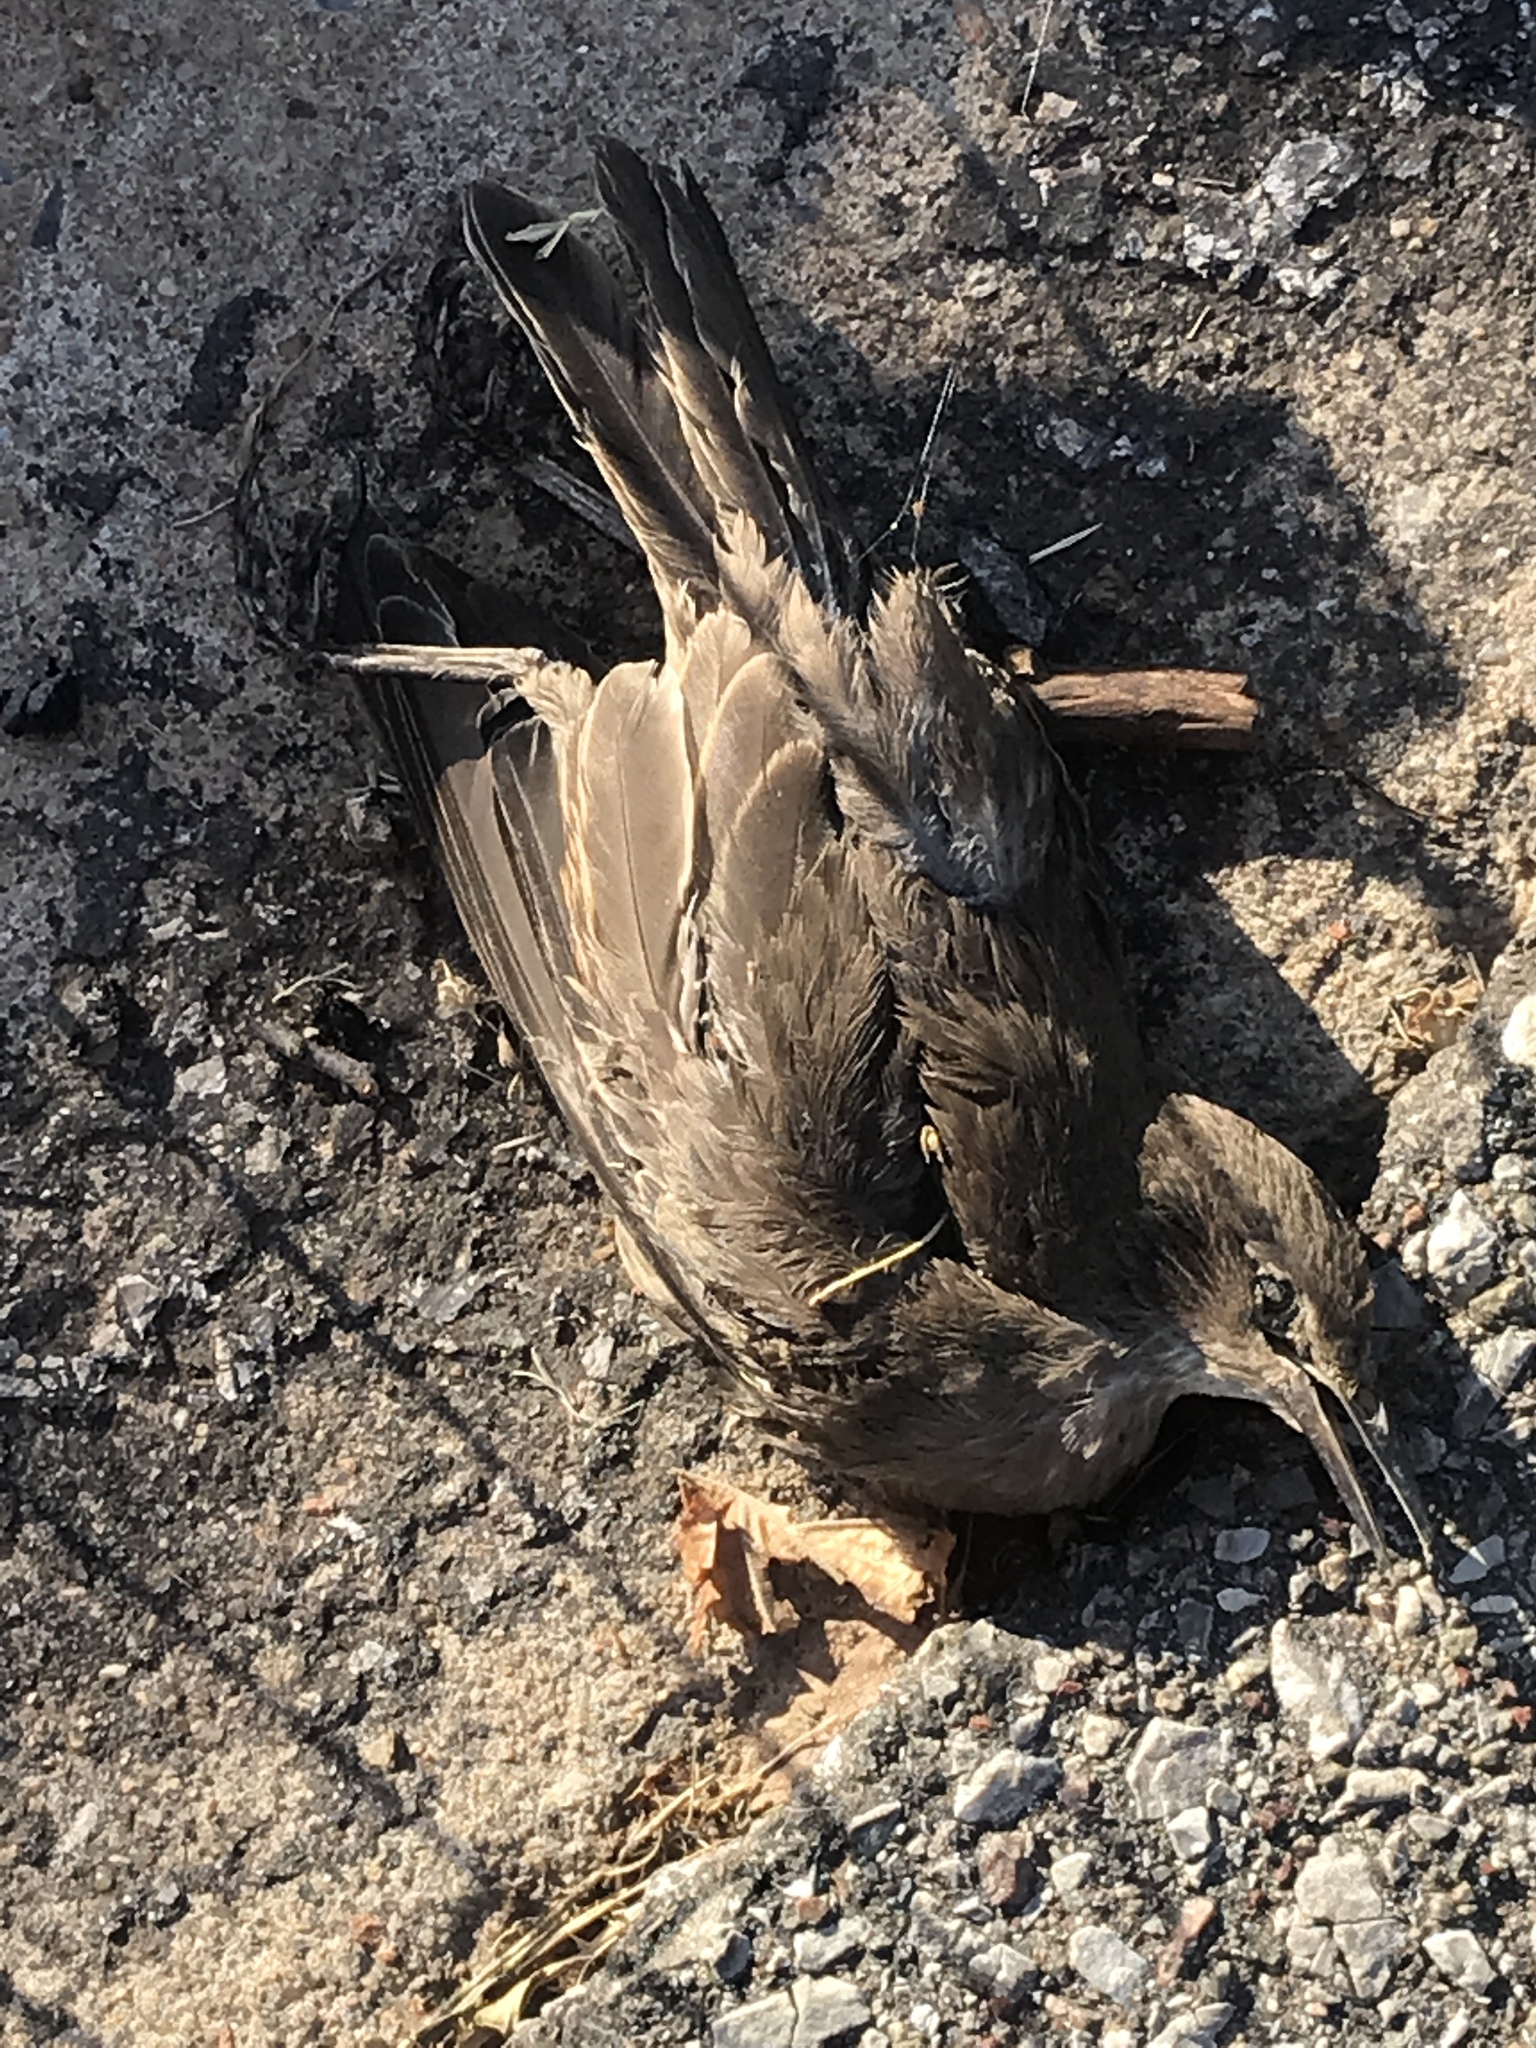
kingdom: Animalia
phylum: Chordata
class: Aves
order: Passeriformes
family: Sturnidae
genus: Sturnus
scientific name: Sturnus vulgaris
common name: Common starling
